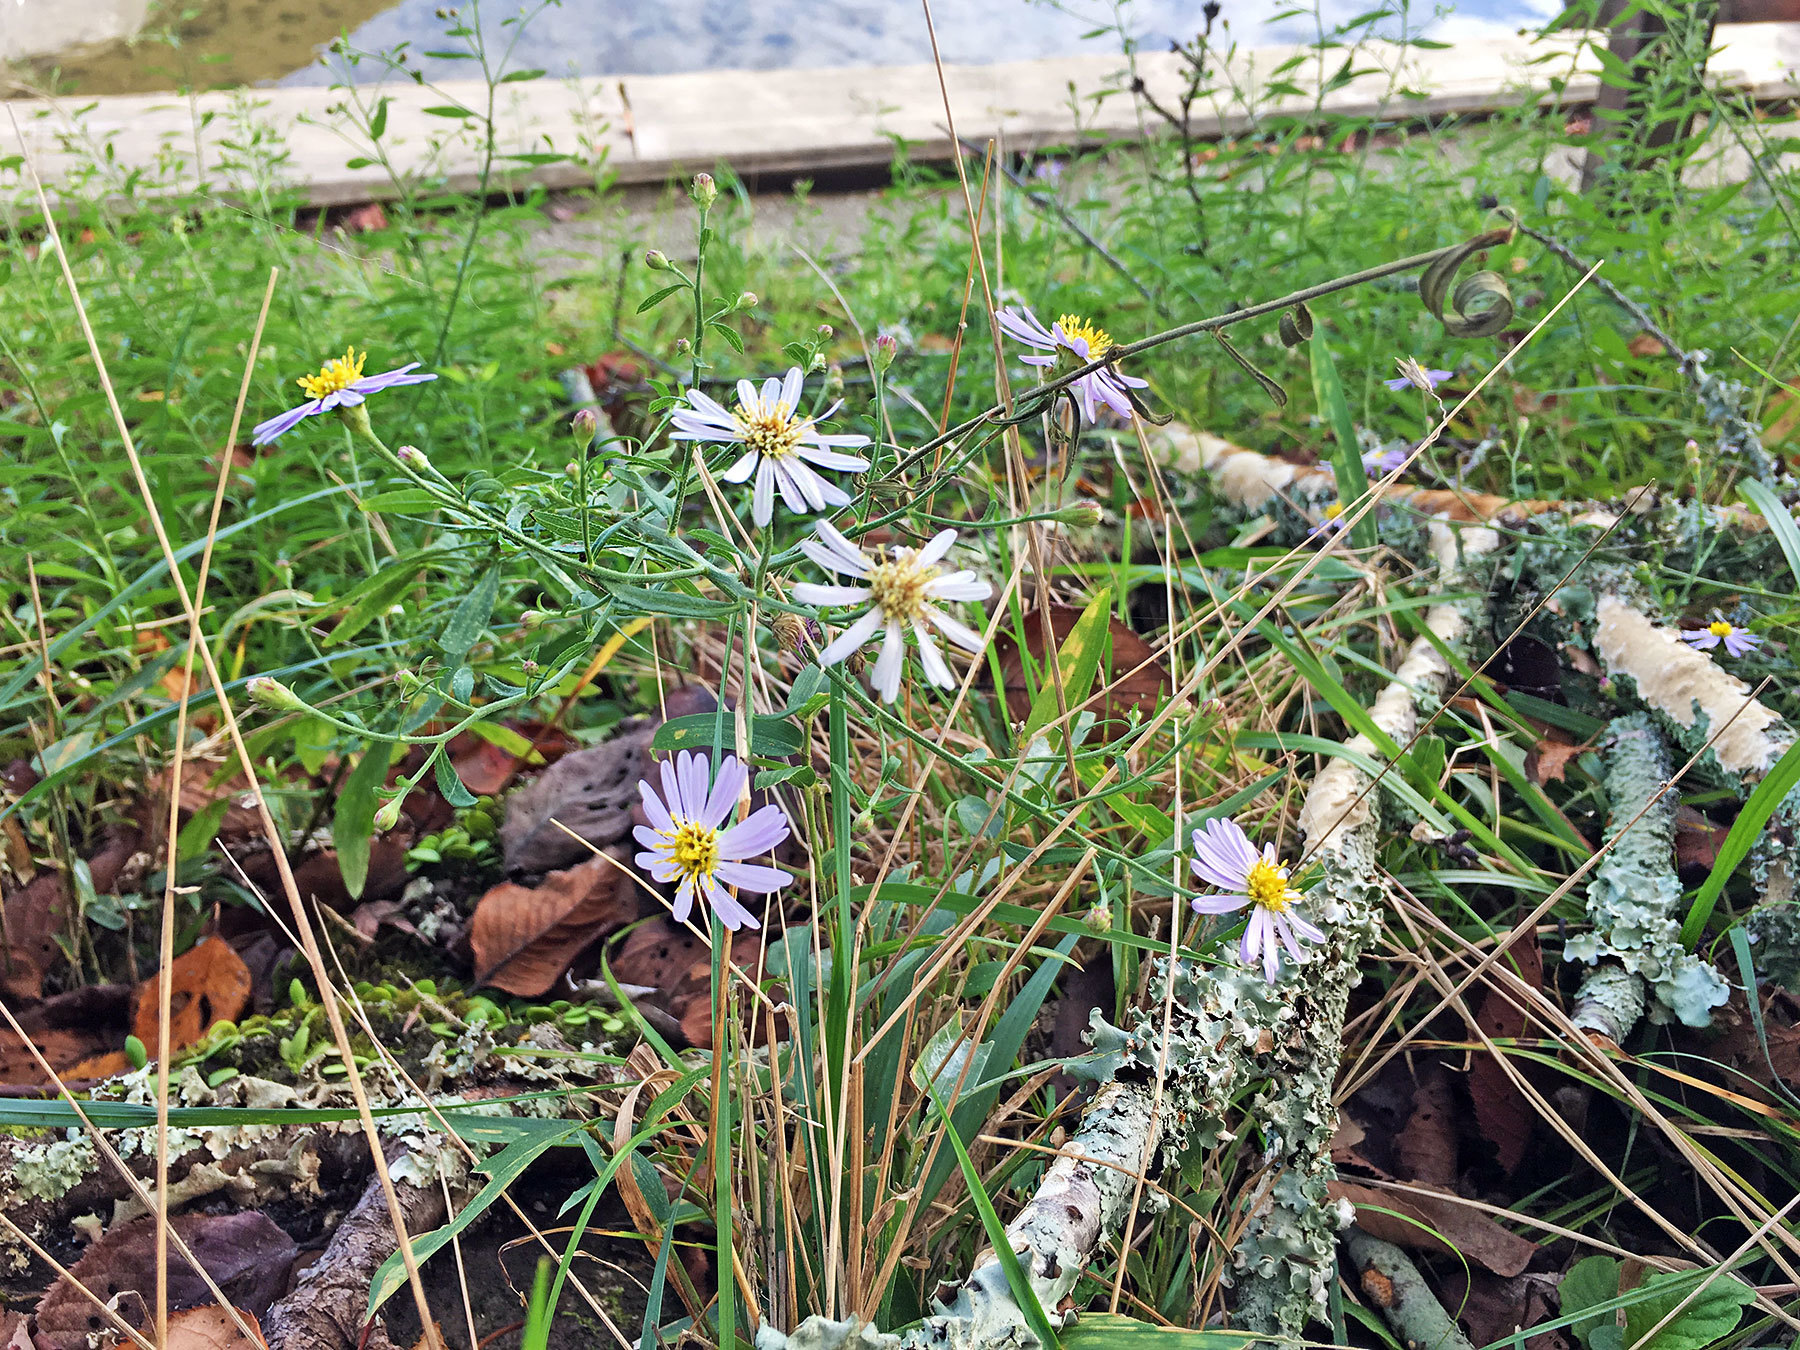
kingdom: Plantae
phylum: Tracheophyta
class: Magnoliopsida
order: Asterales
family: Asteraceae
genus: Aster
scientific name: Aster microcephalus
